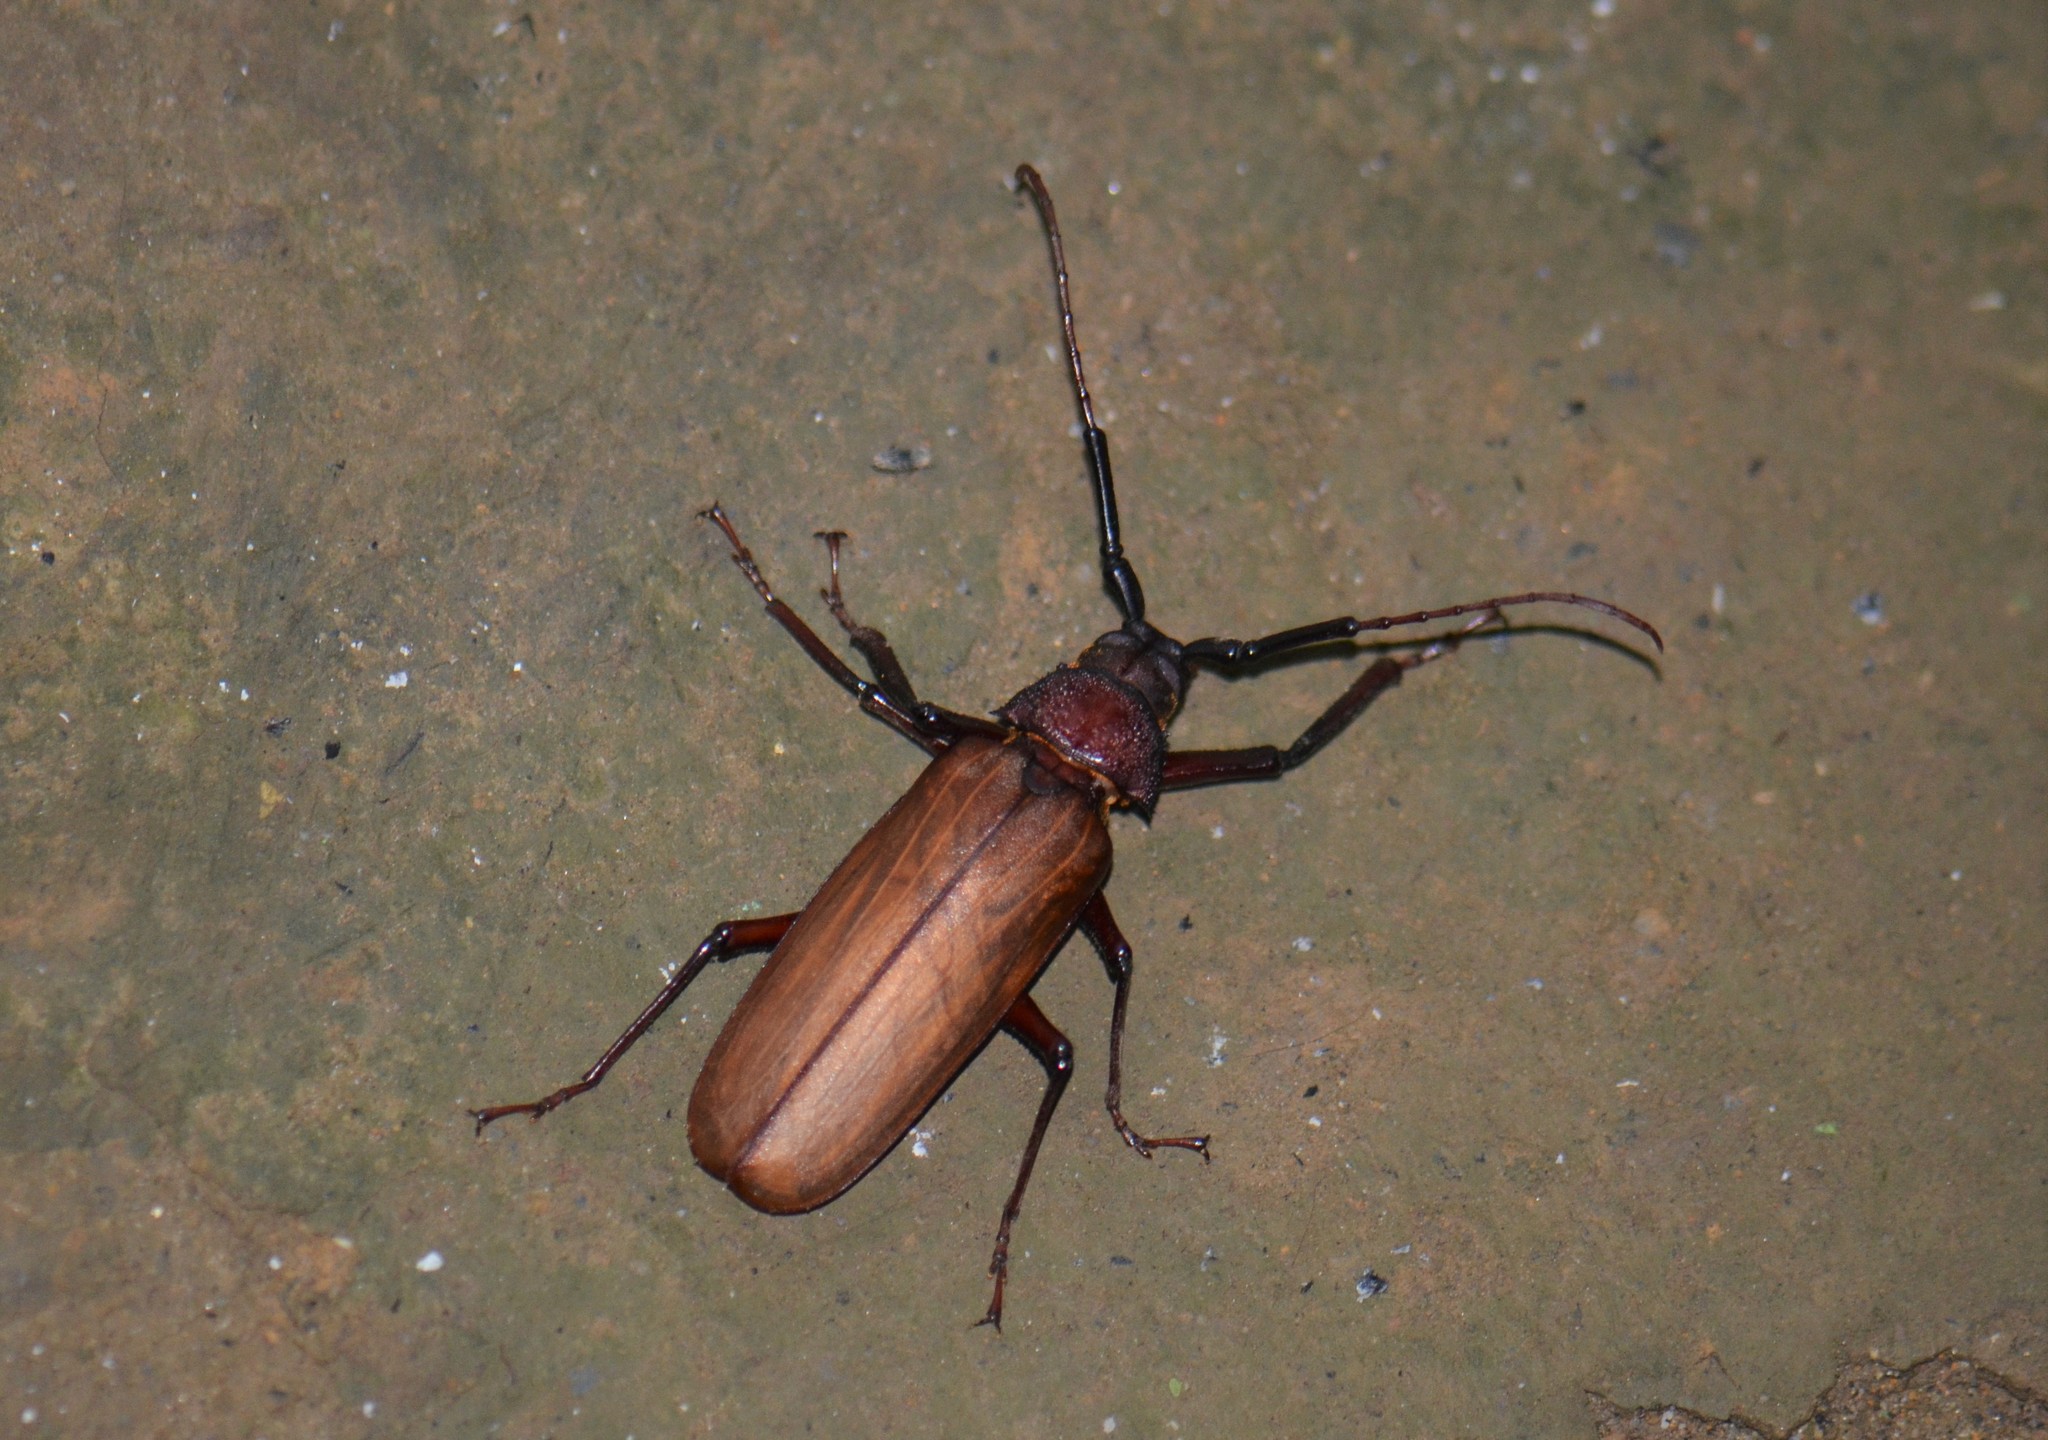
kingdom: Animalia
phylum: Arthropoda
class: Insecta
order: Coleoptera
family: Cerambycidae
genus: Bandar
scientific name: Bandar pascoei
